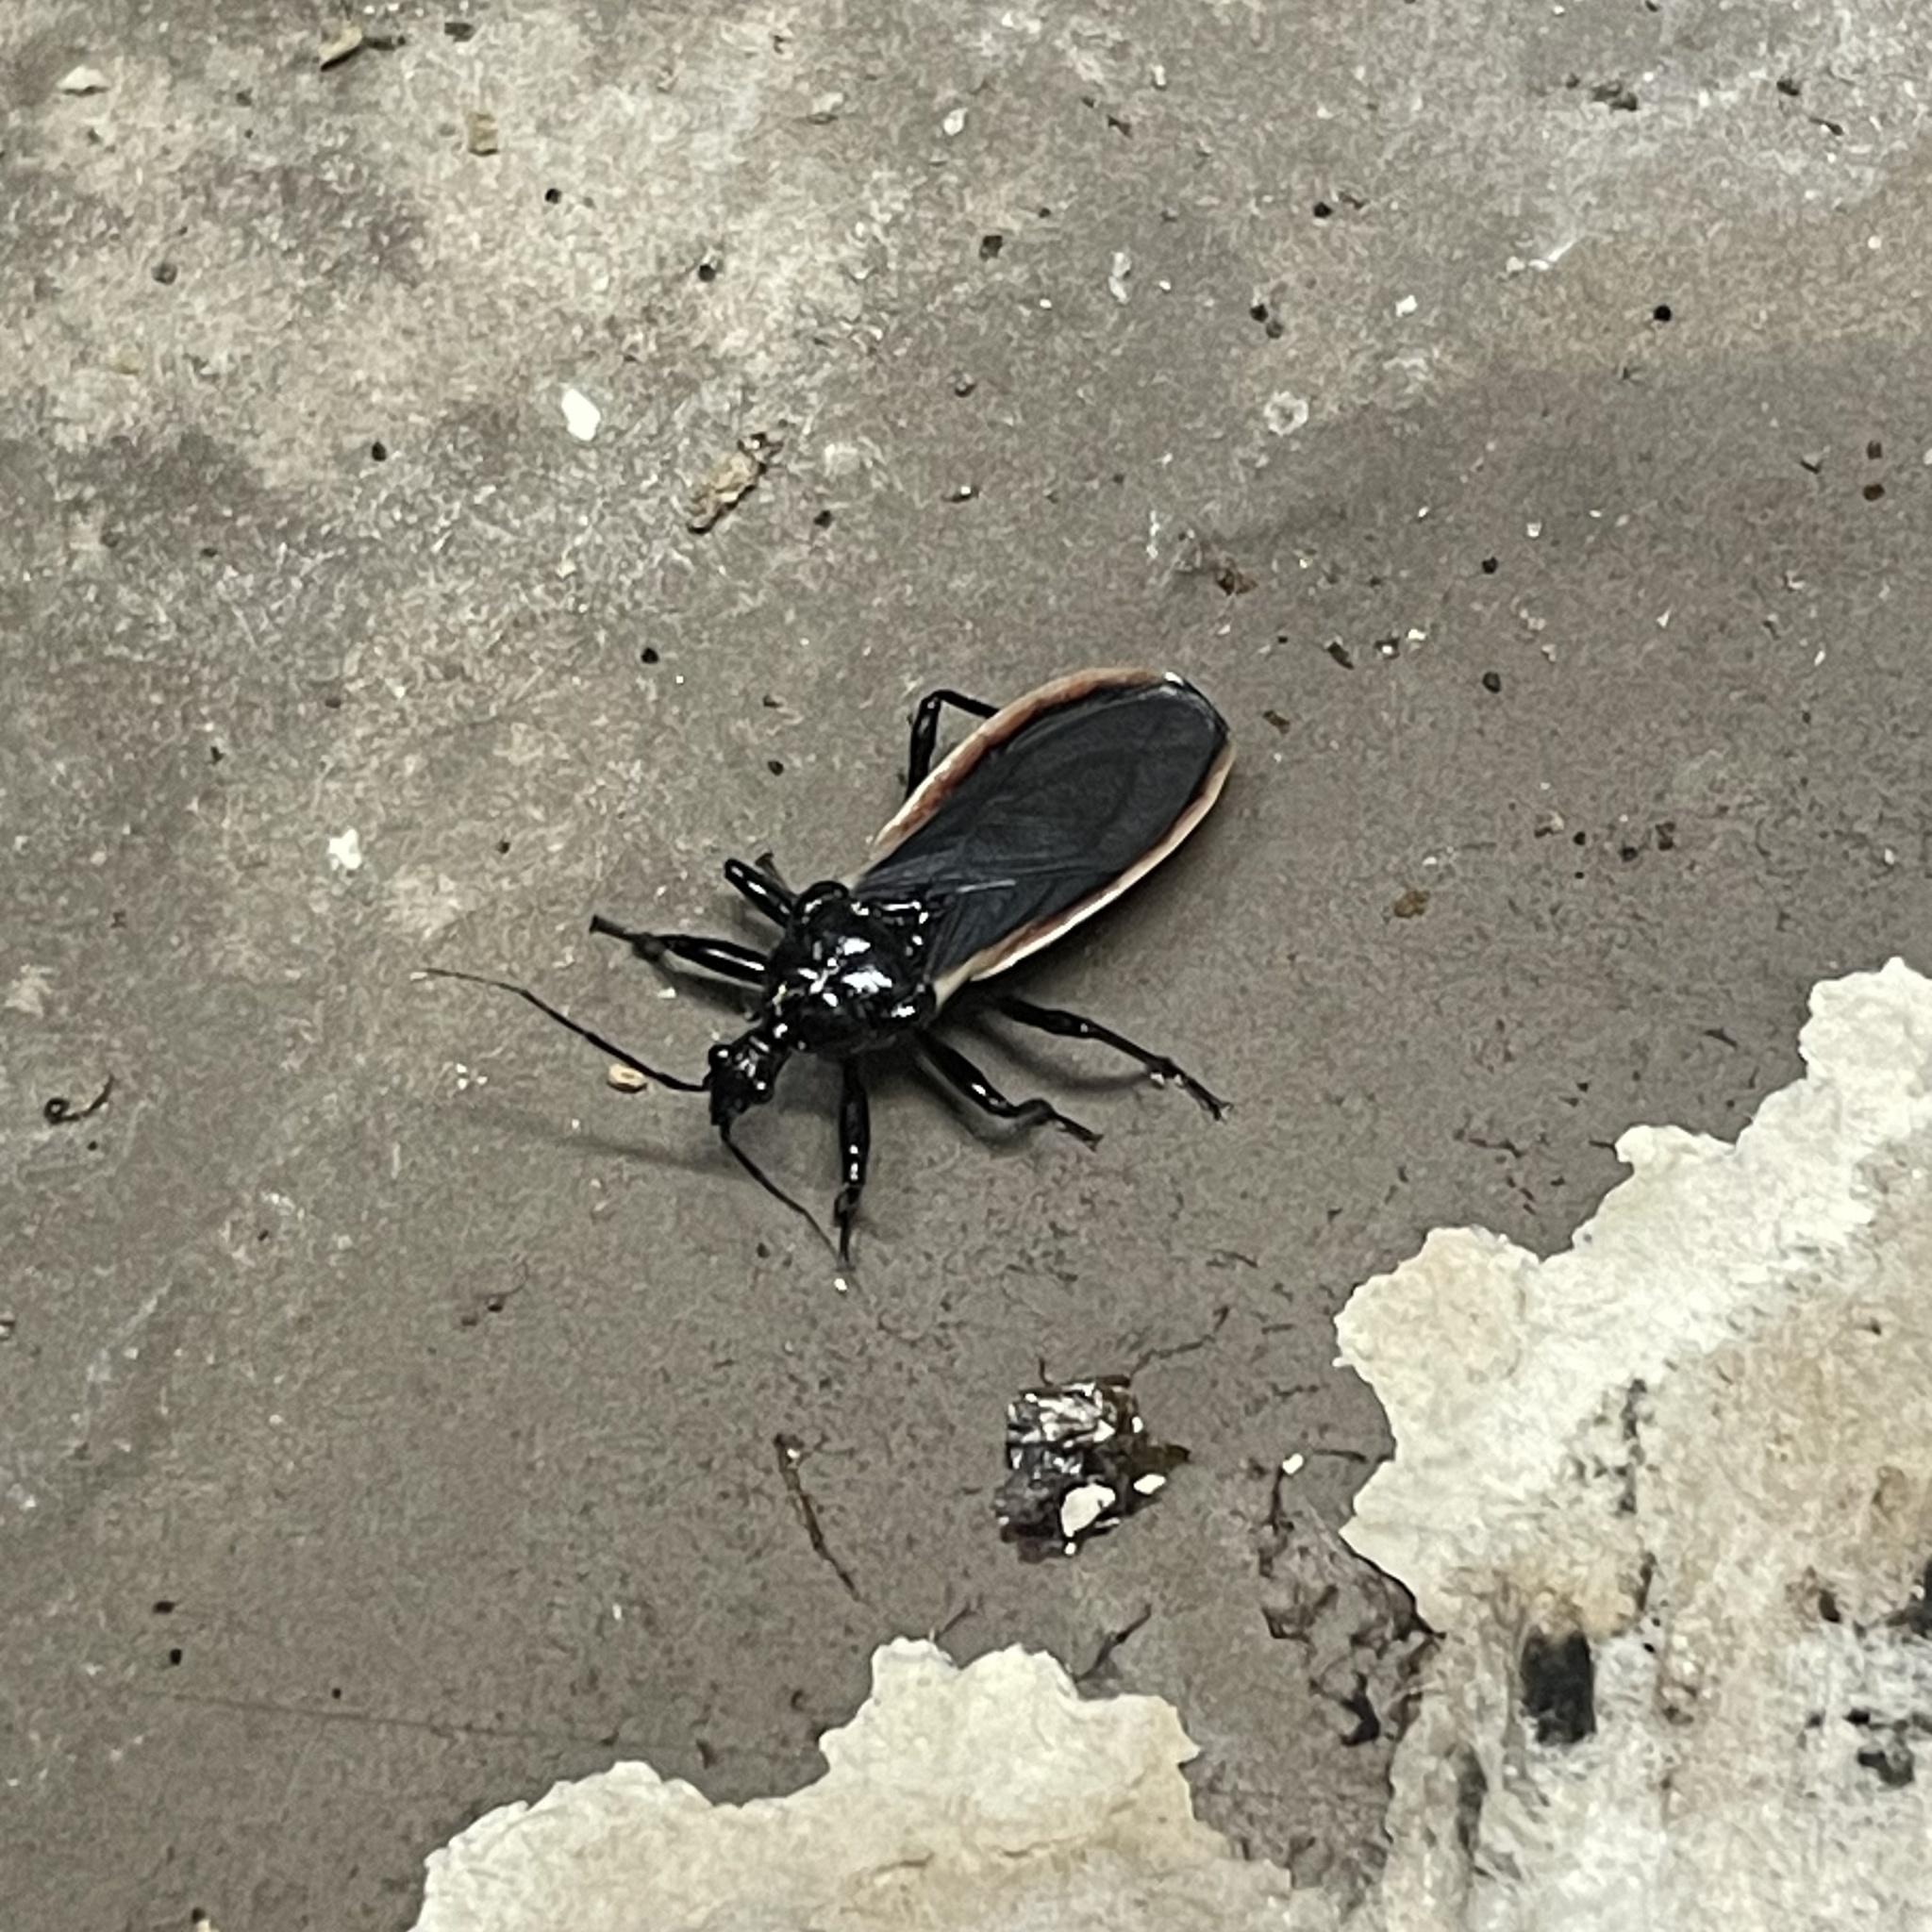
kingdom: Animalia
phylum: Arthropoda
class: Insecta
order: Hemiptera
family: Reduviidae
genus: Scadra
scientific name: Scadra okinawensis
